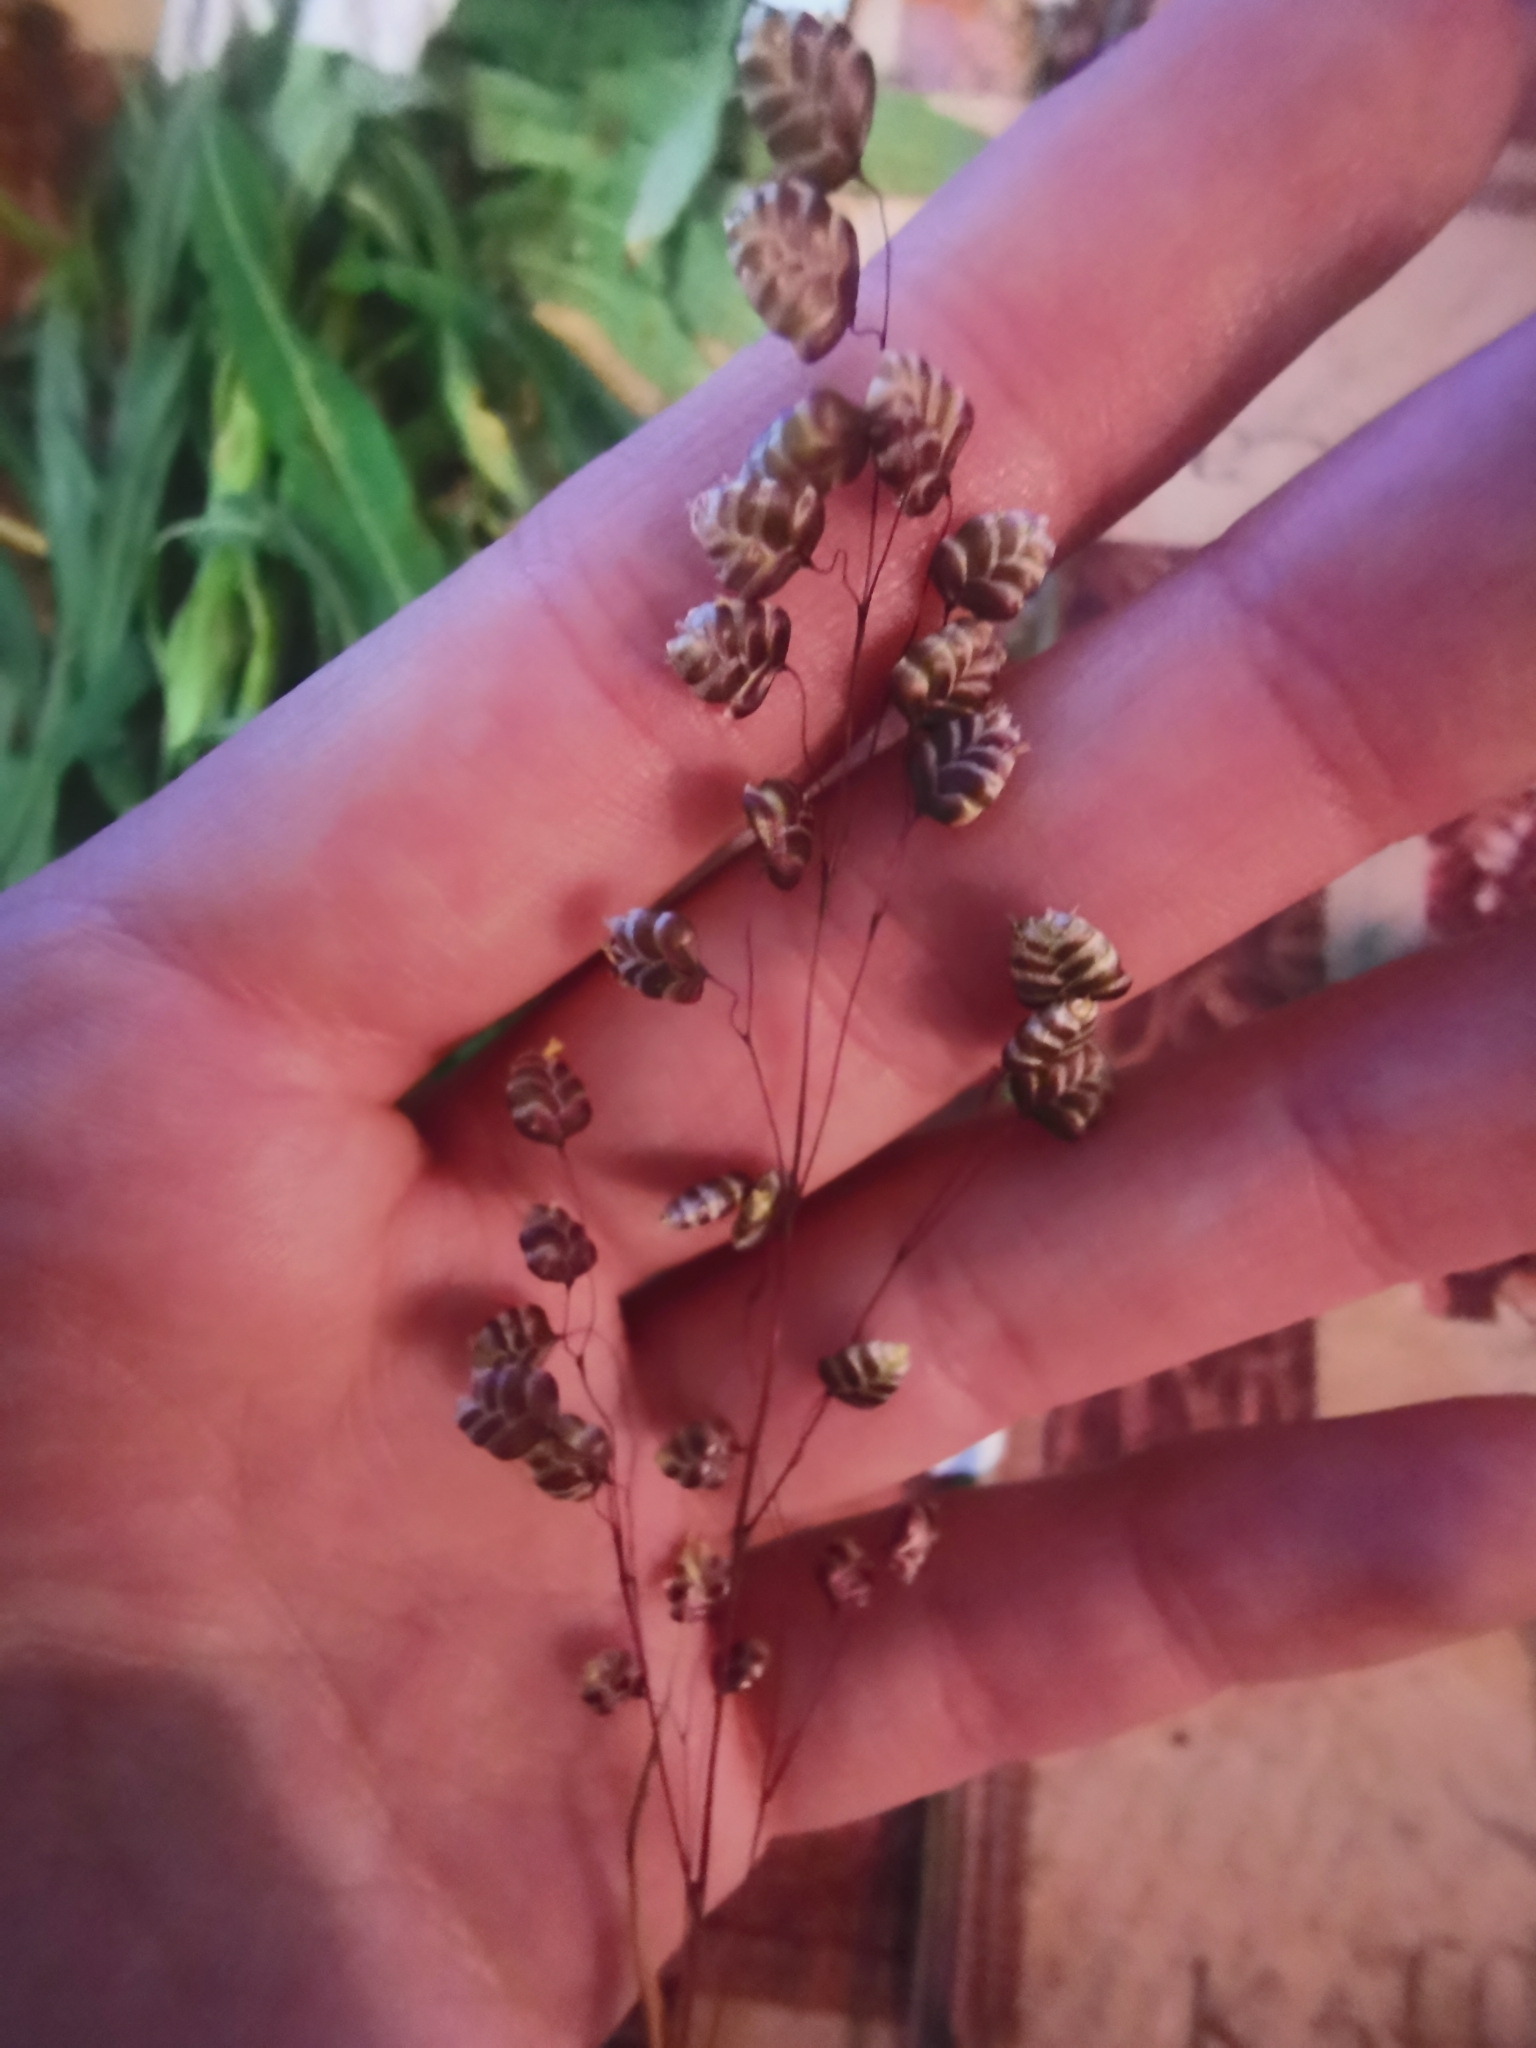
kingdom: Plantae
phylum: Tracheophyta
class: Liliopsida
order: Poales
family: Poaceae
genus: Briza
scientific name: Briza media
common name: Quaking grass
